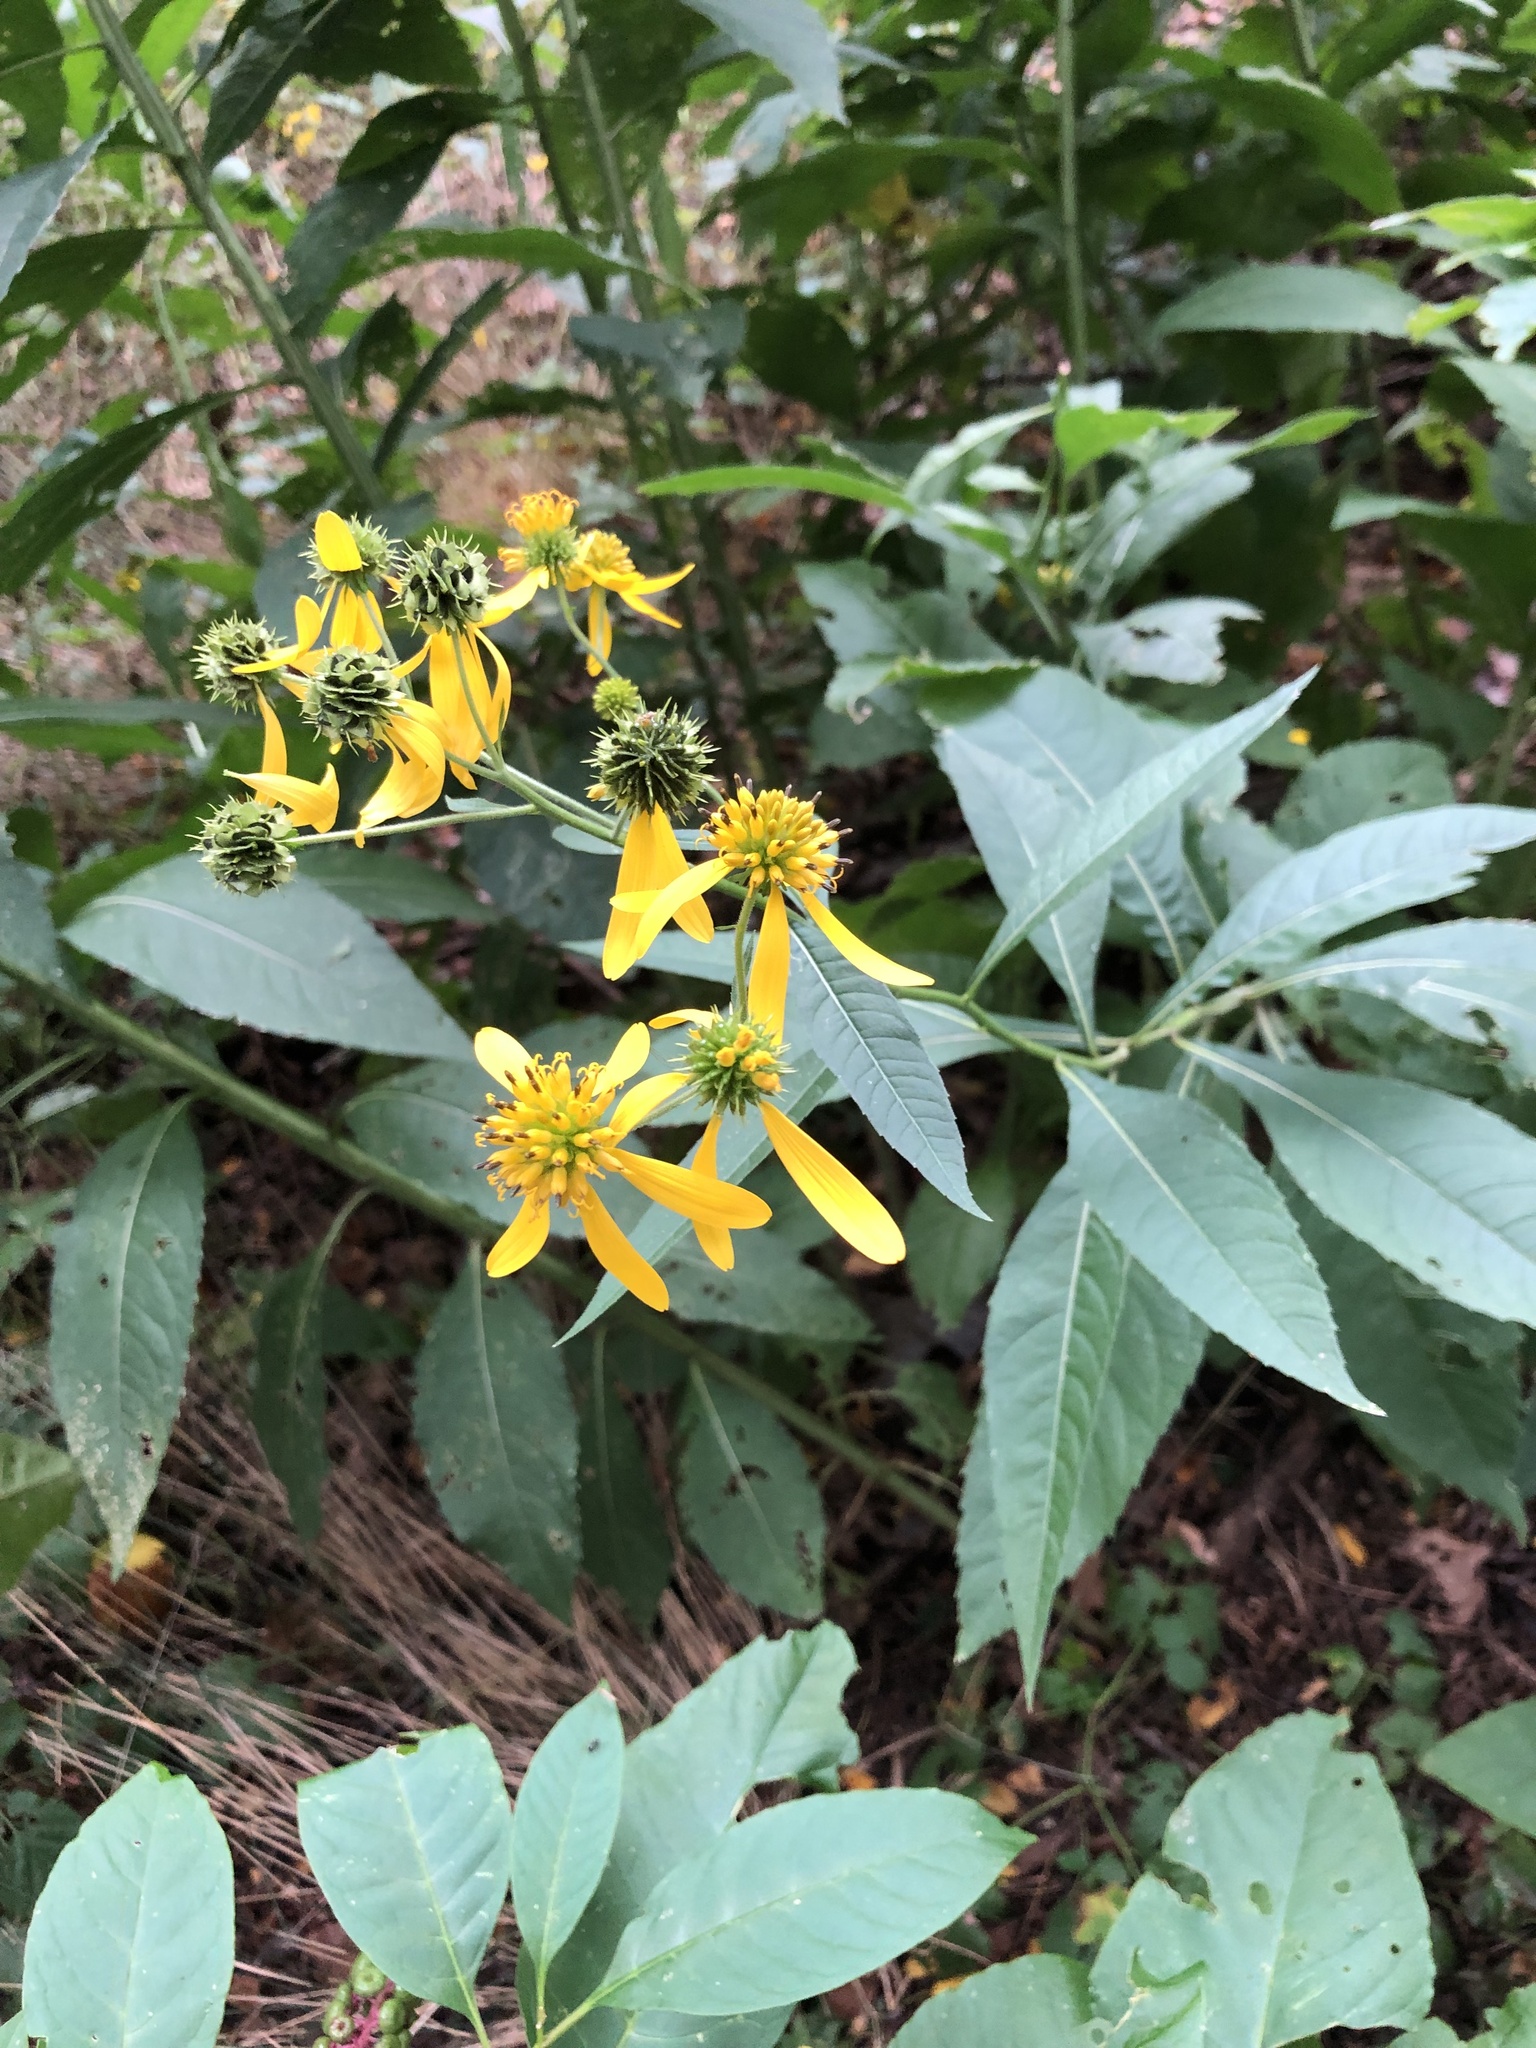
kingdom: Plantae
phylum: Tracheophyta
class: Magnoliopsida
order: Asterales
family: Asteraceae
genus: Verbesina
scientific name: Verbesina alternifolia
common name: Wingstem
